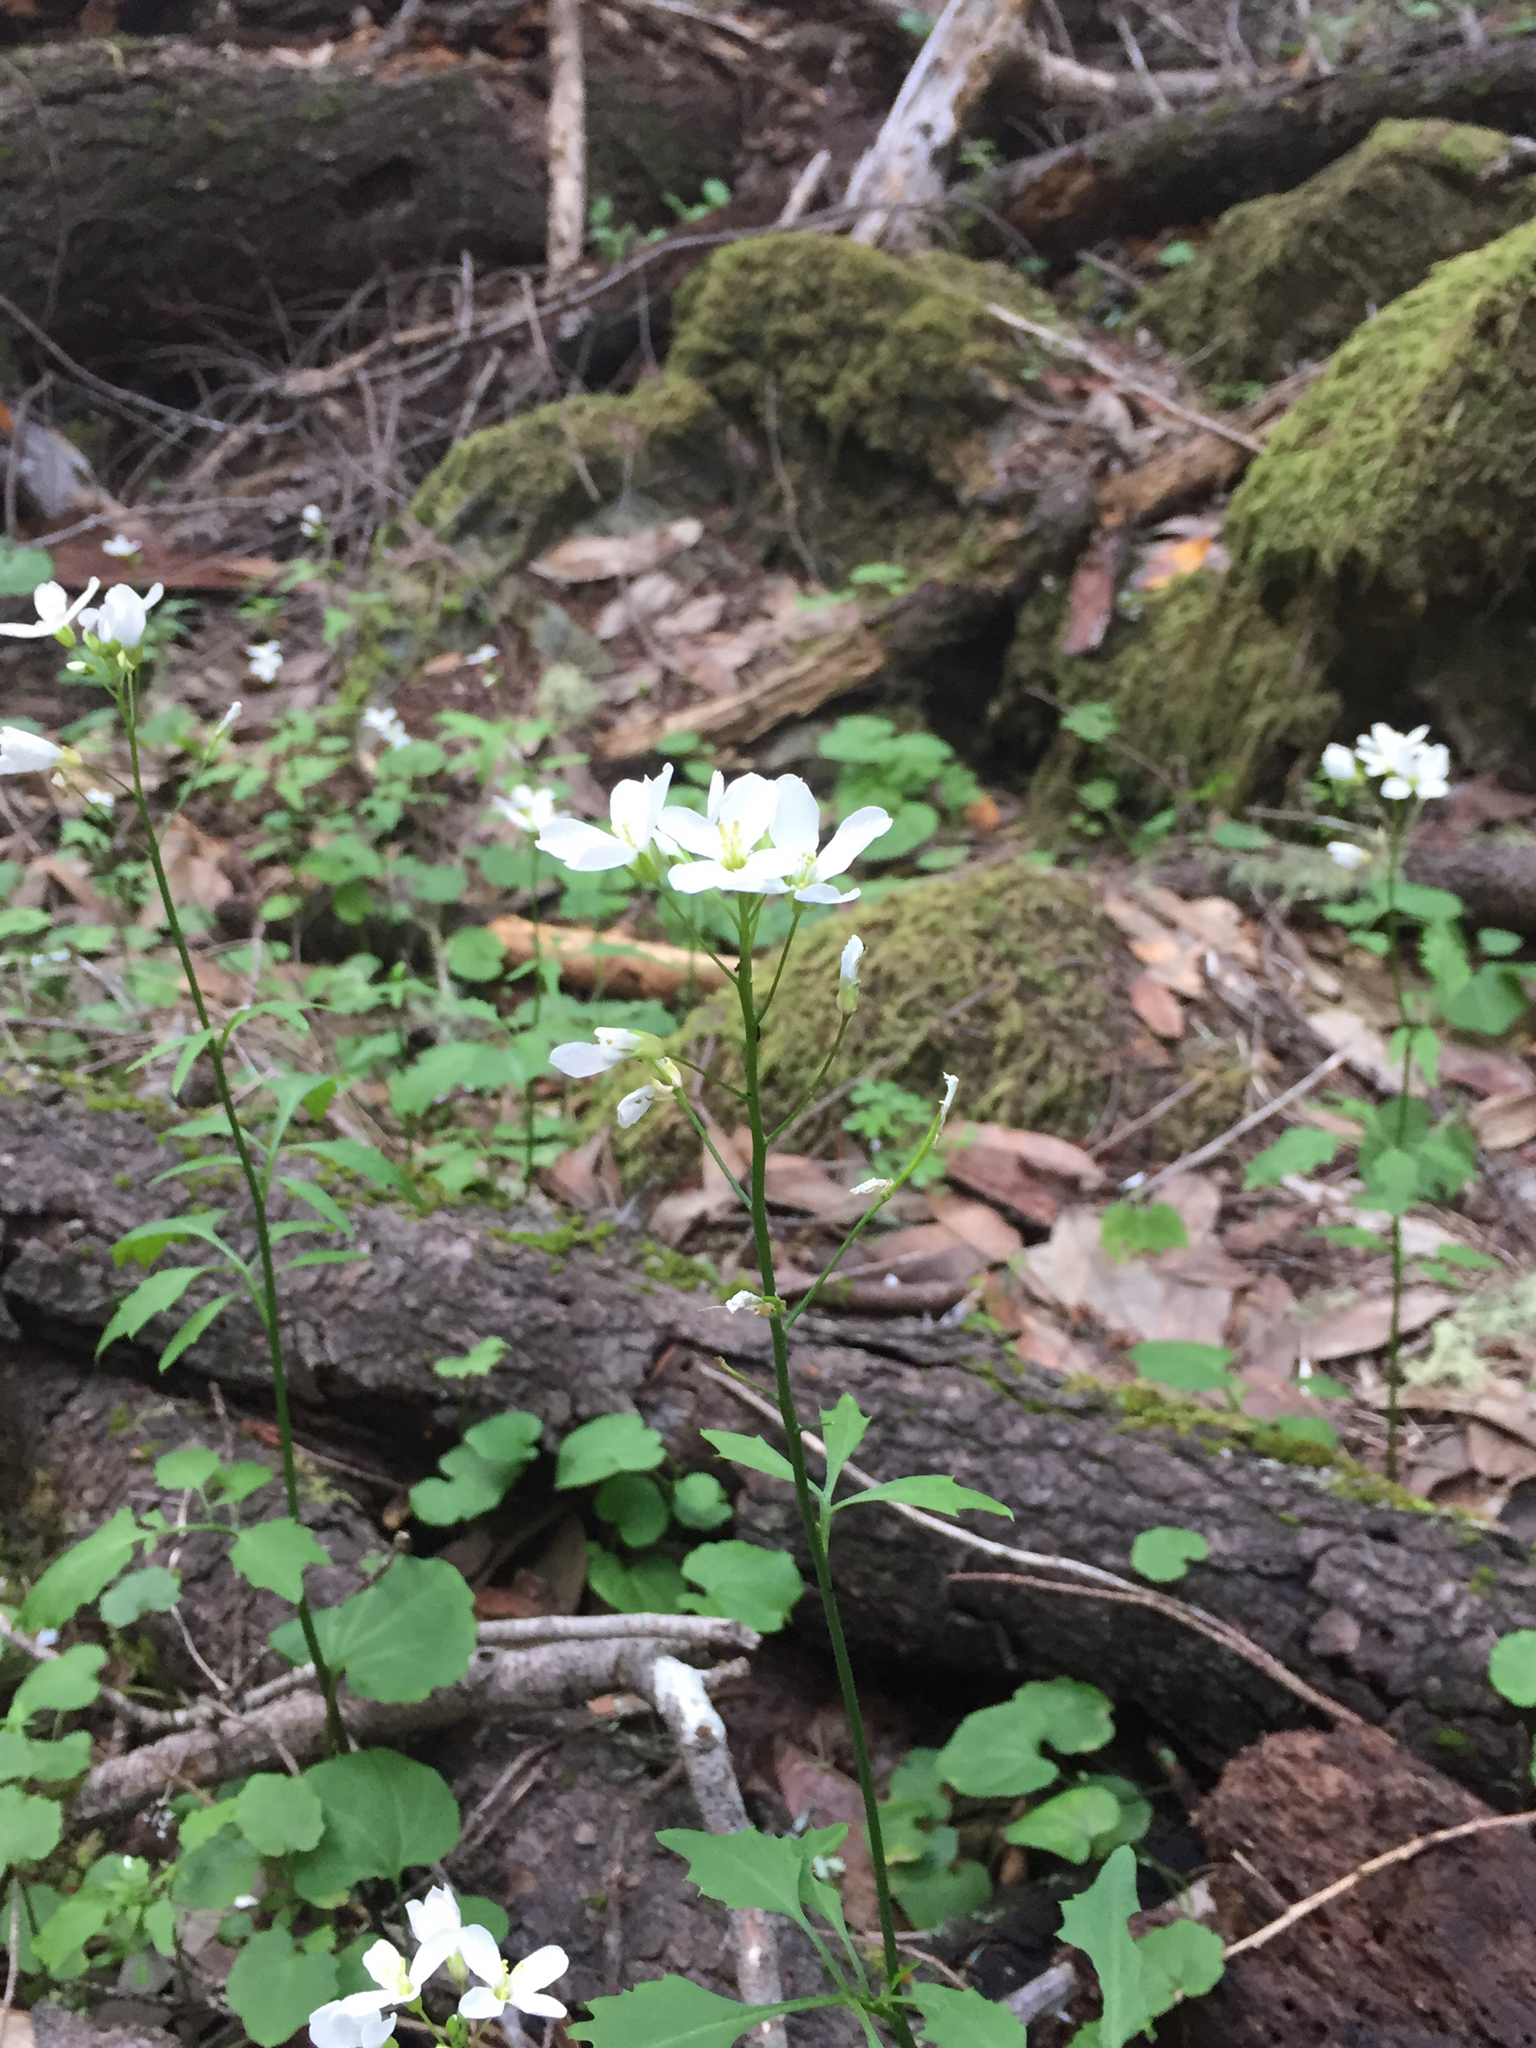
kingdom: Plantae
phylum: Tracheophyta
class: Magnoliopsida
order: Brassicales
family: Brassicaceae
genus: Cardamine
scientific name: Cardamine californica
